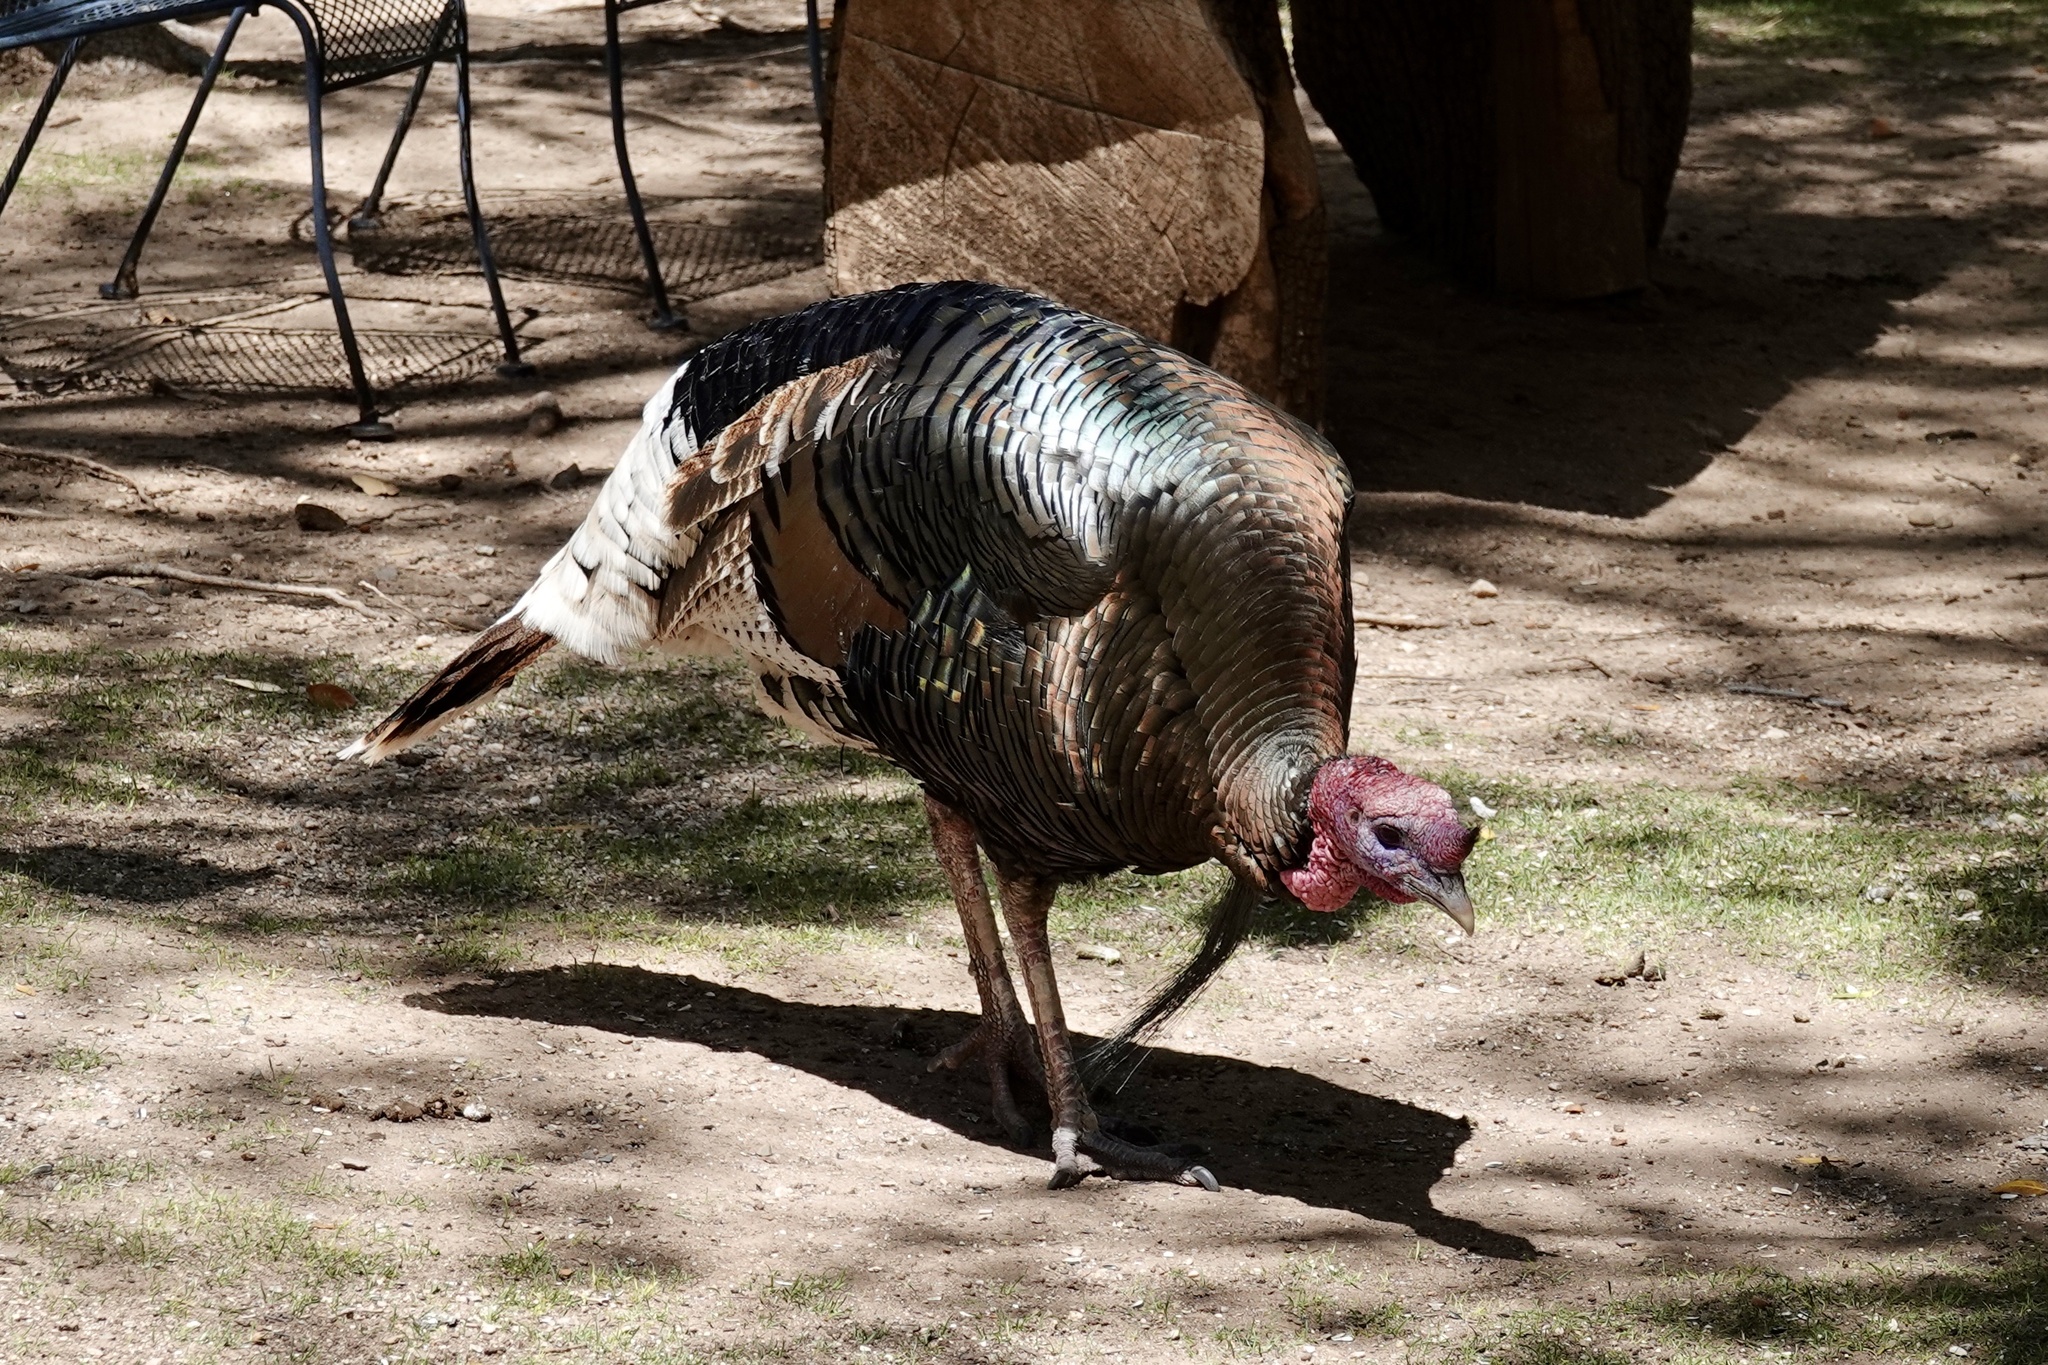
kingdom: Animalia
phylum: Chordata
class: Aves
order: Galliformes
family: Phasianidae
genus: Meleagris
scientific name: Meleagris gallopavo
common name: Wild turkey
